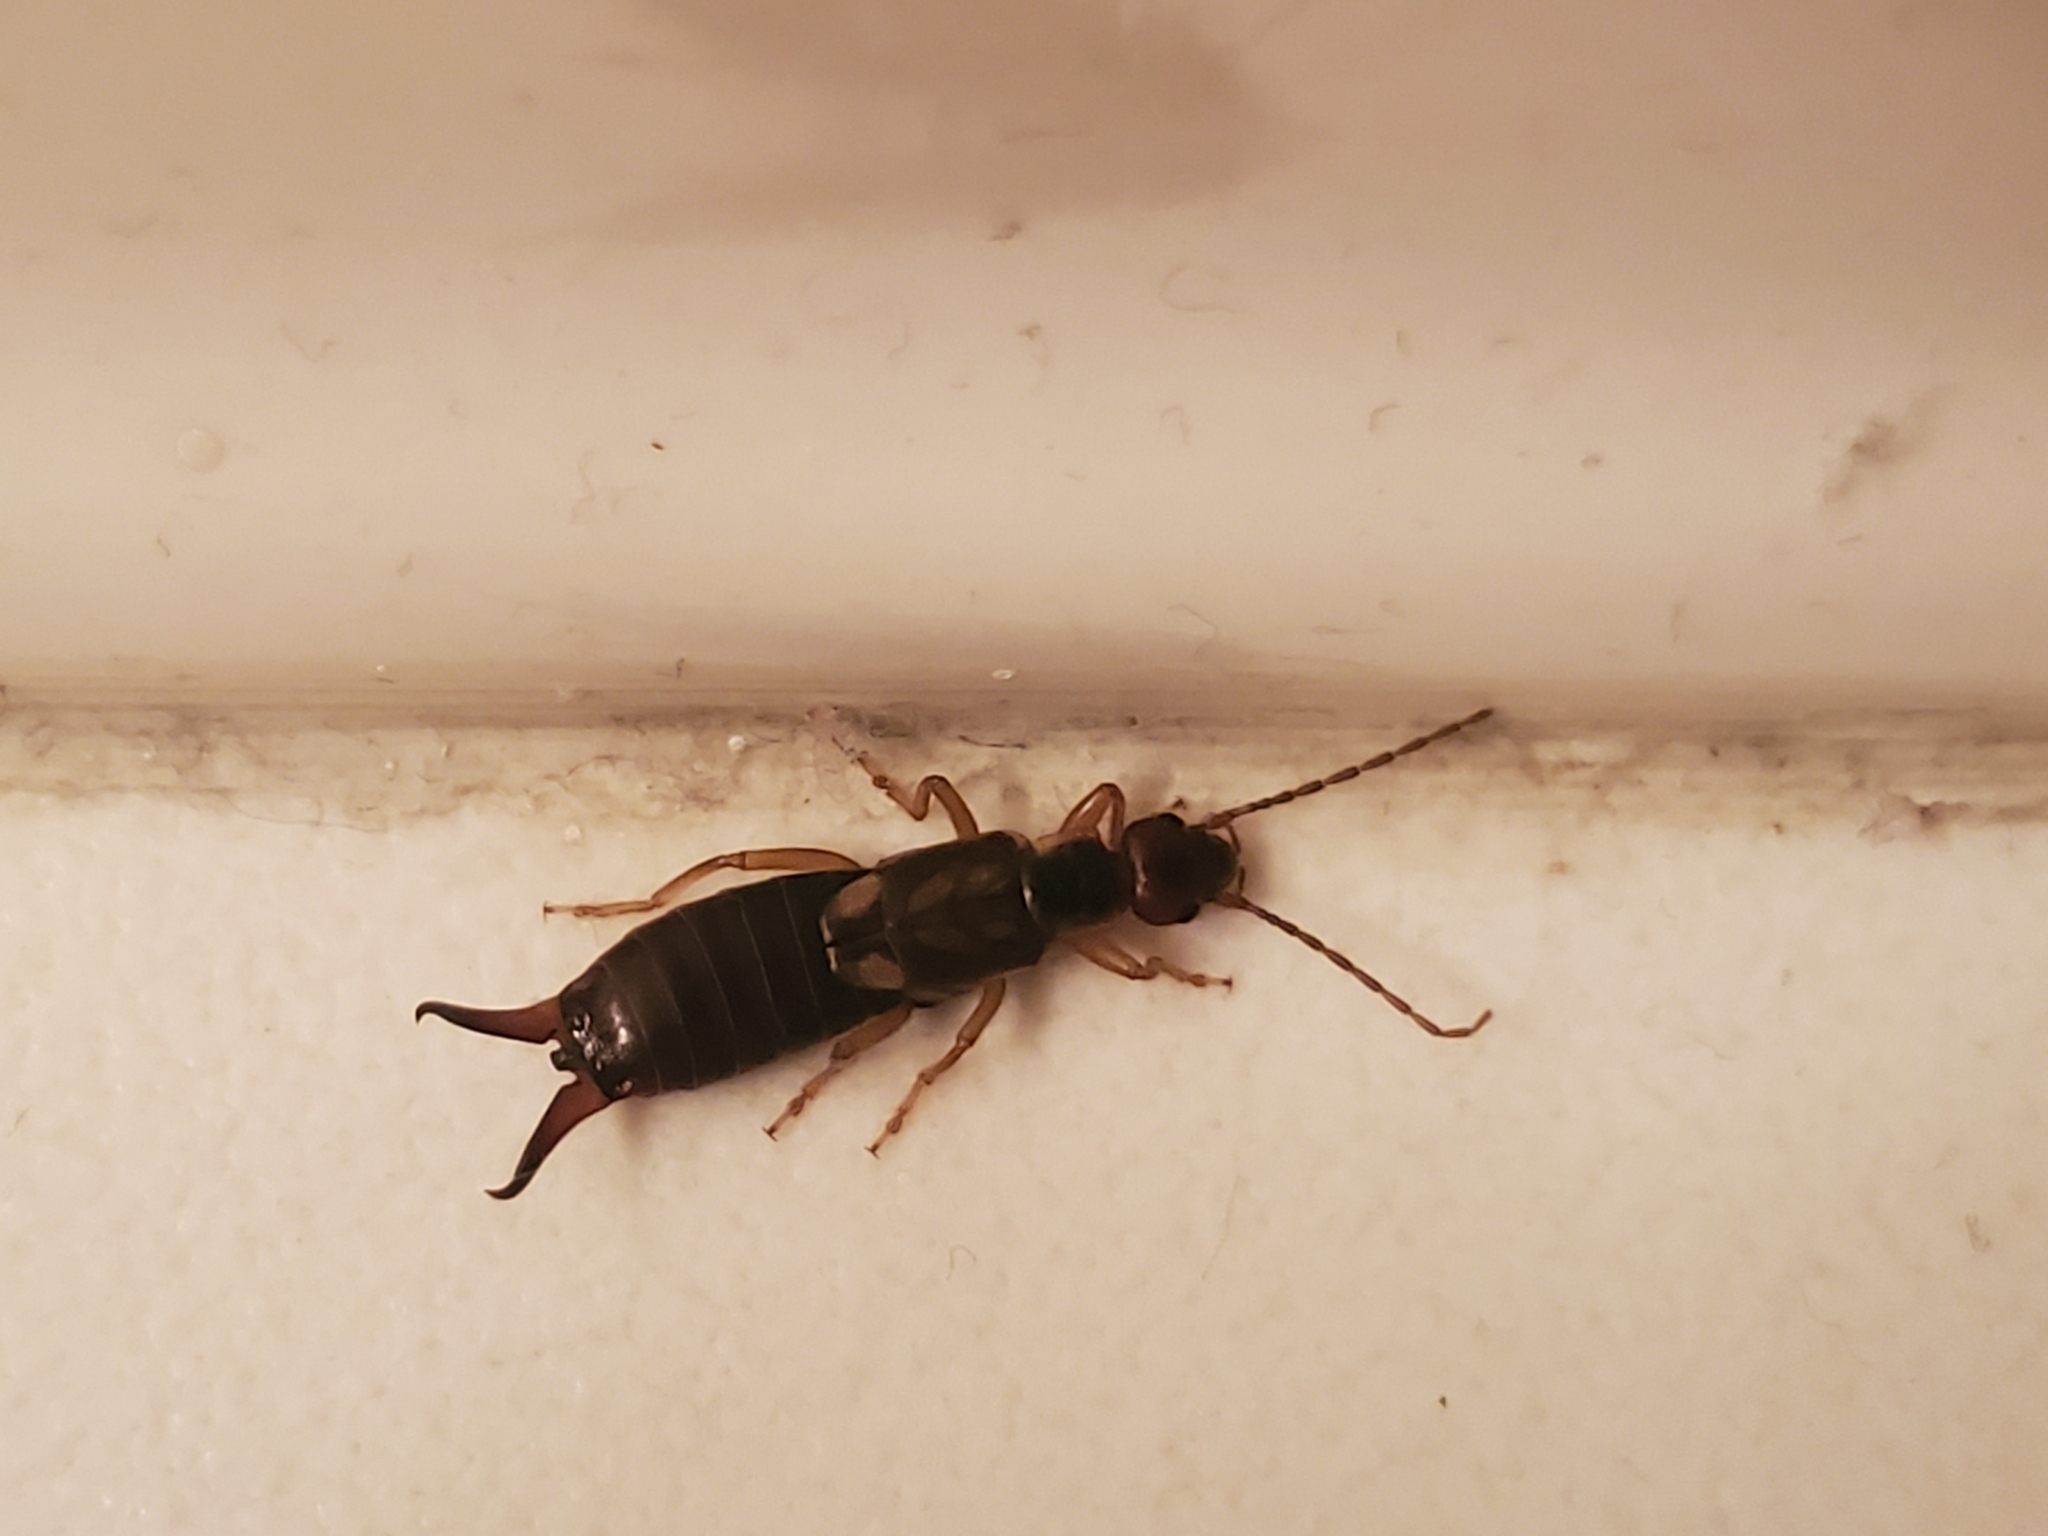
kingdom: Animalia
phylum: Arthropoda
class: Insecta
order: Dermaptera
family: Forficulidae
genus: Forficula
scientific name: Forficula
